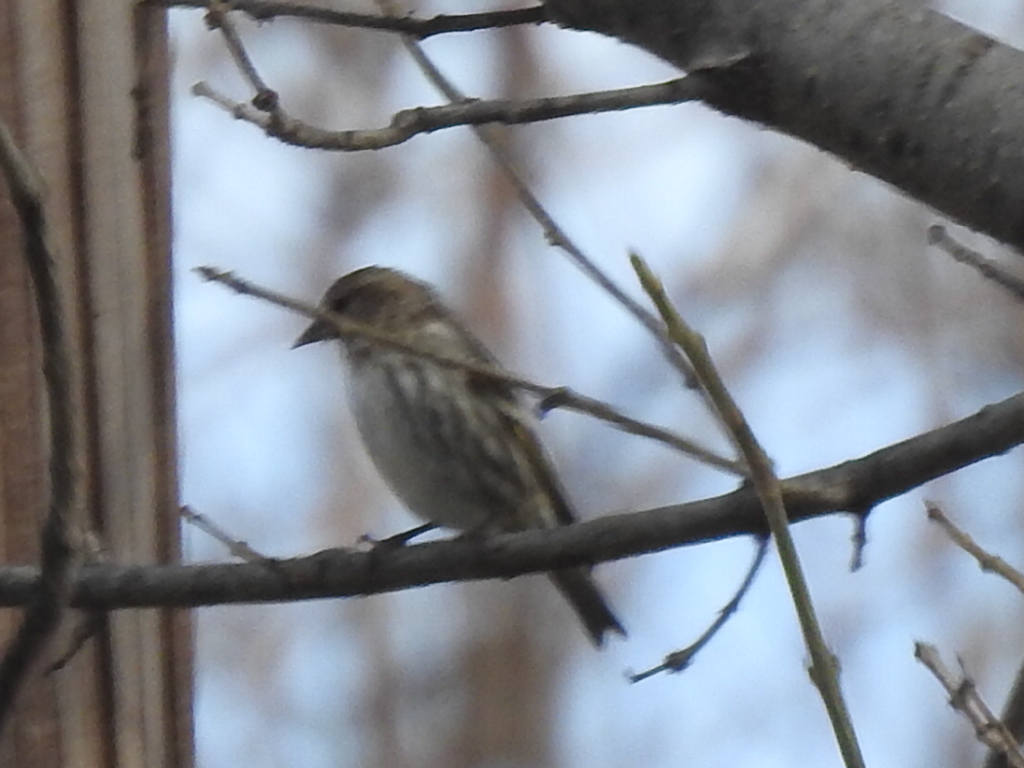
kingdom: Animalia
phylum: Chordata
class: Aves
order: Passeriformes
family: Fringillidae
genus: Spinus
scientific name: Spinus pinus
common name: Pine siskin
